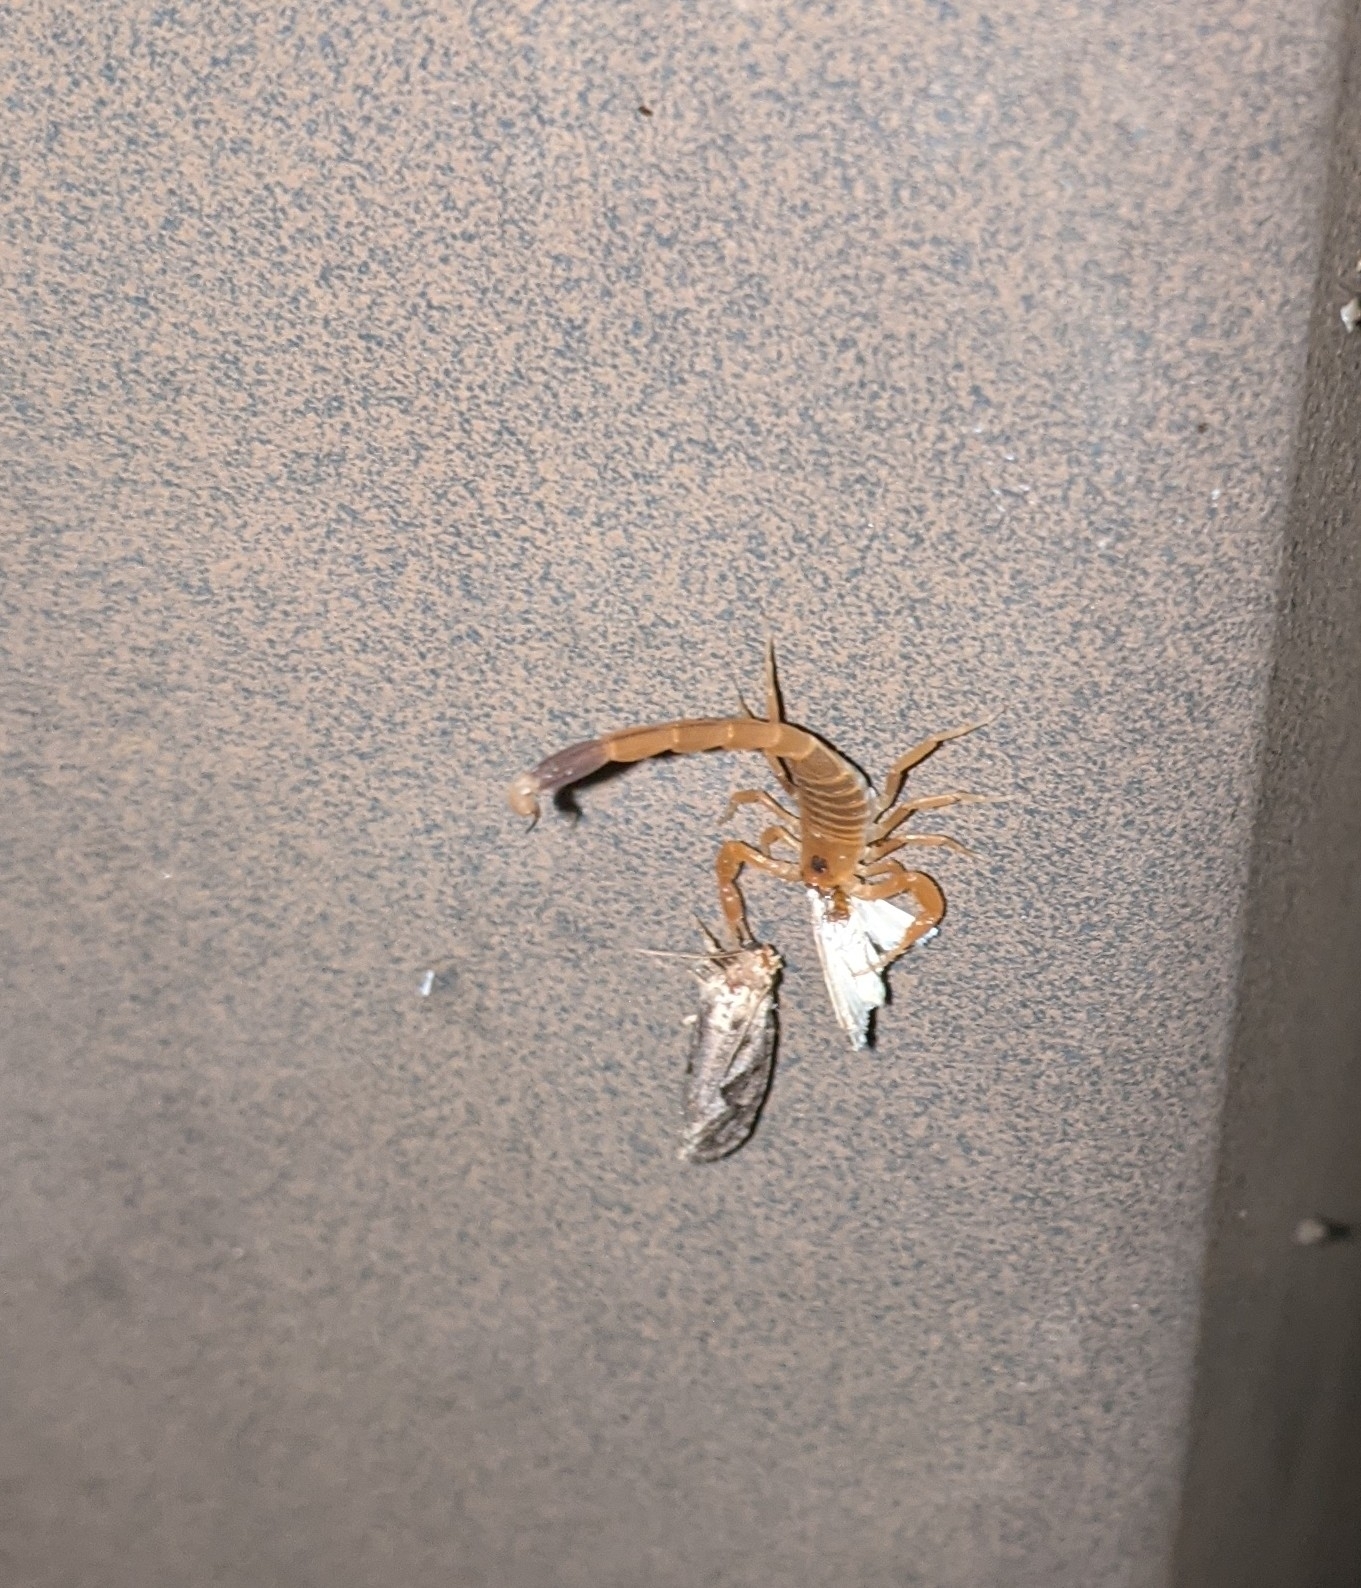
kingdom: Animalia
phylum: Arthropoda
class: Arachnida
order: Scorpiones
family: Buthidae
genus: Centruroides
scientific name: Centruroides vittatus
